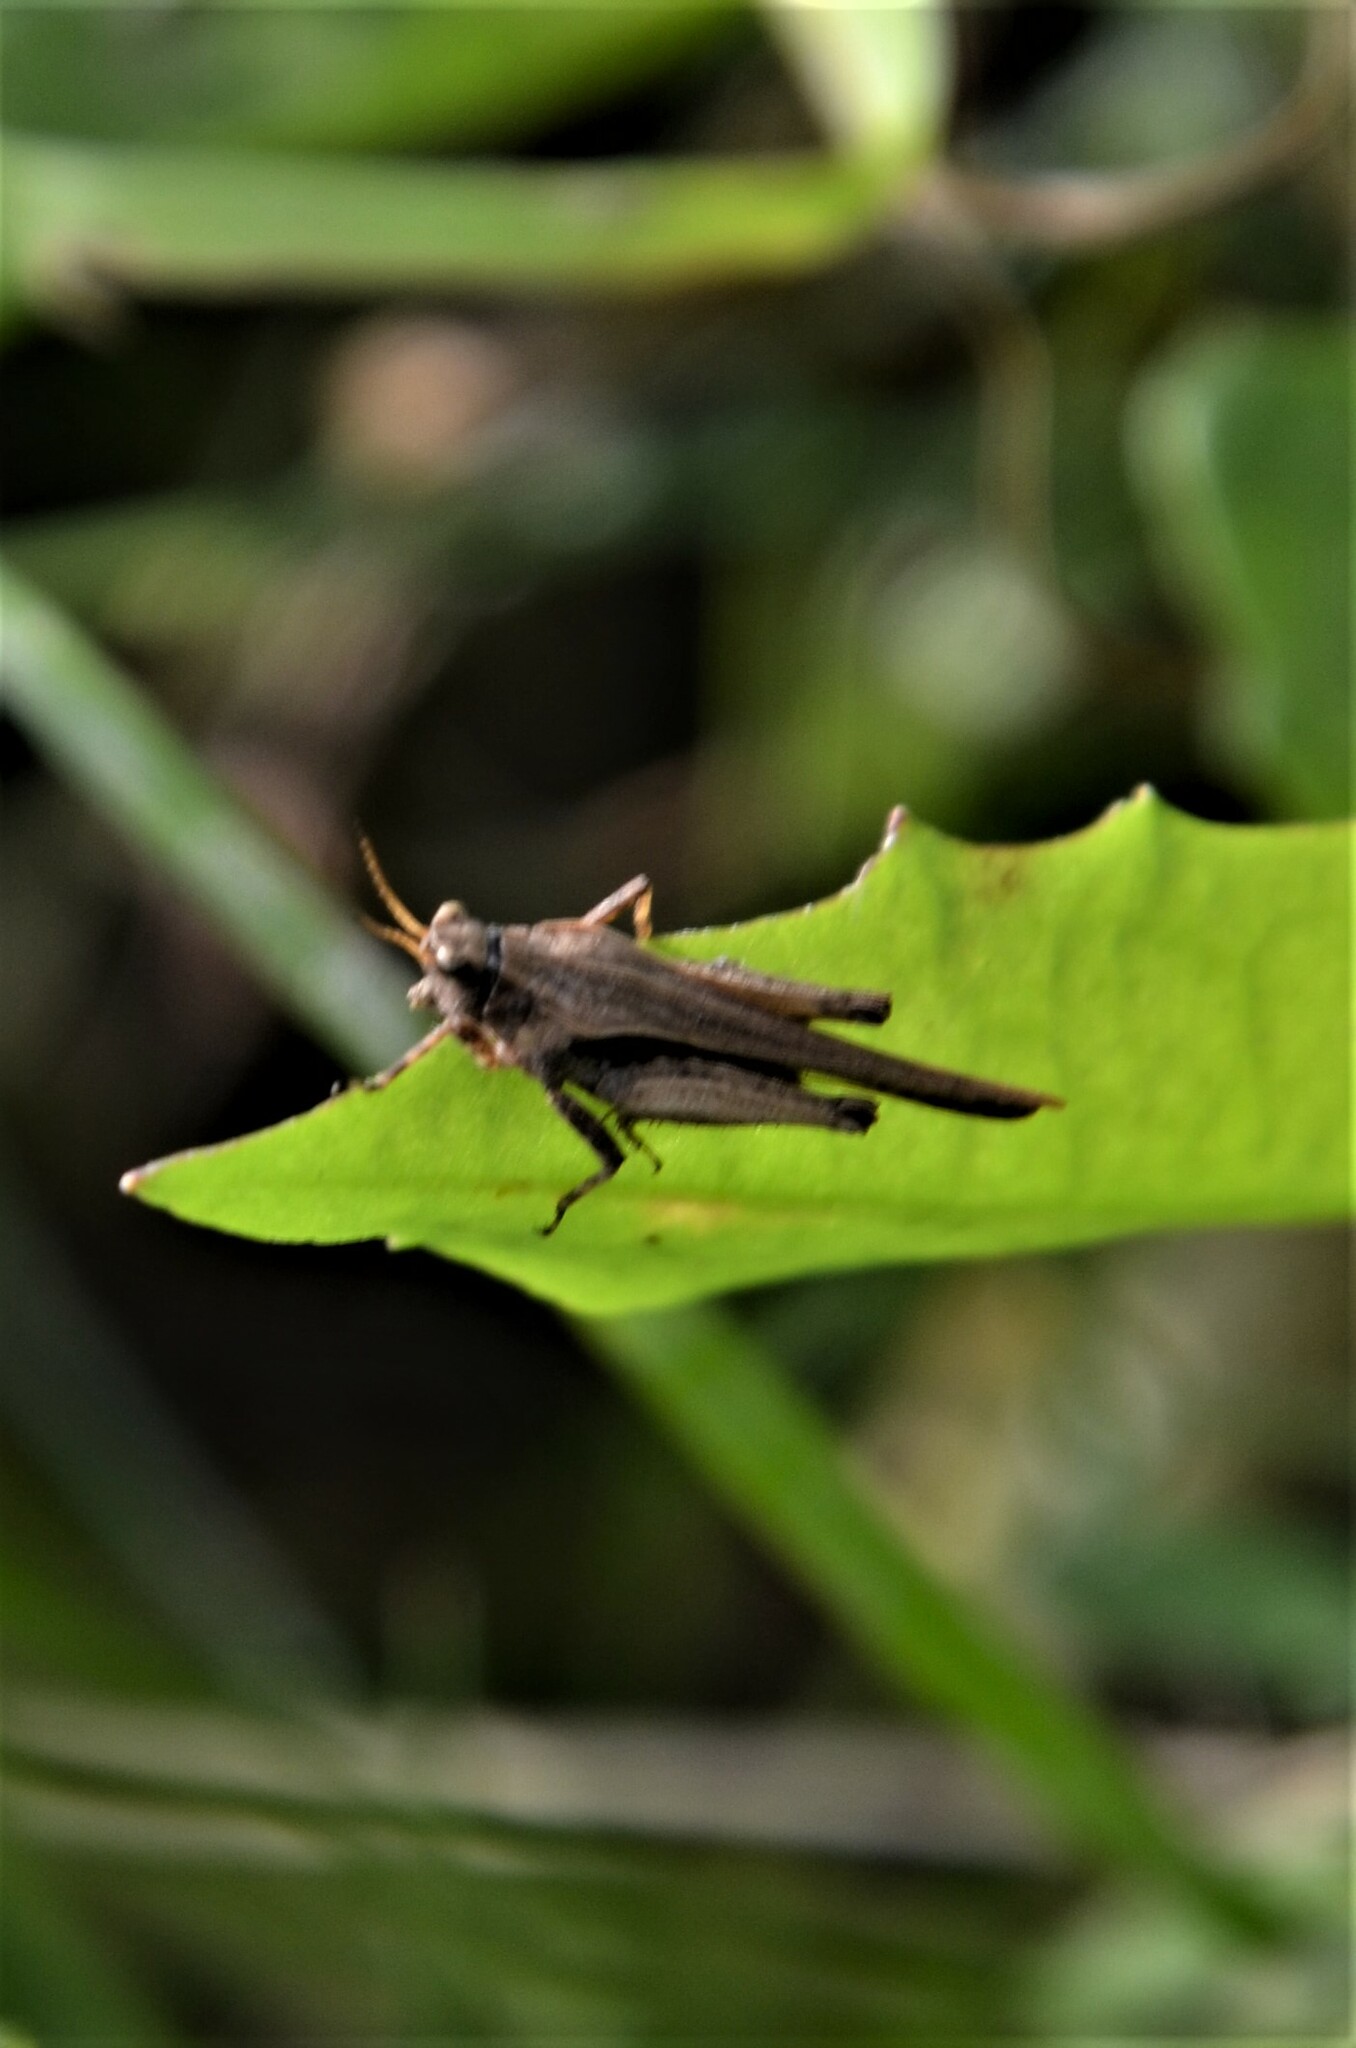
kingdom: Animalia
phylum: Arthropoda
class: Insecta
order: Orthoptera
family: Tetrigidae
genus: Tetrix
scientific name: Tetrix subulata
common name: Slender ground-hopper
